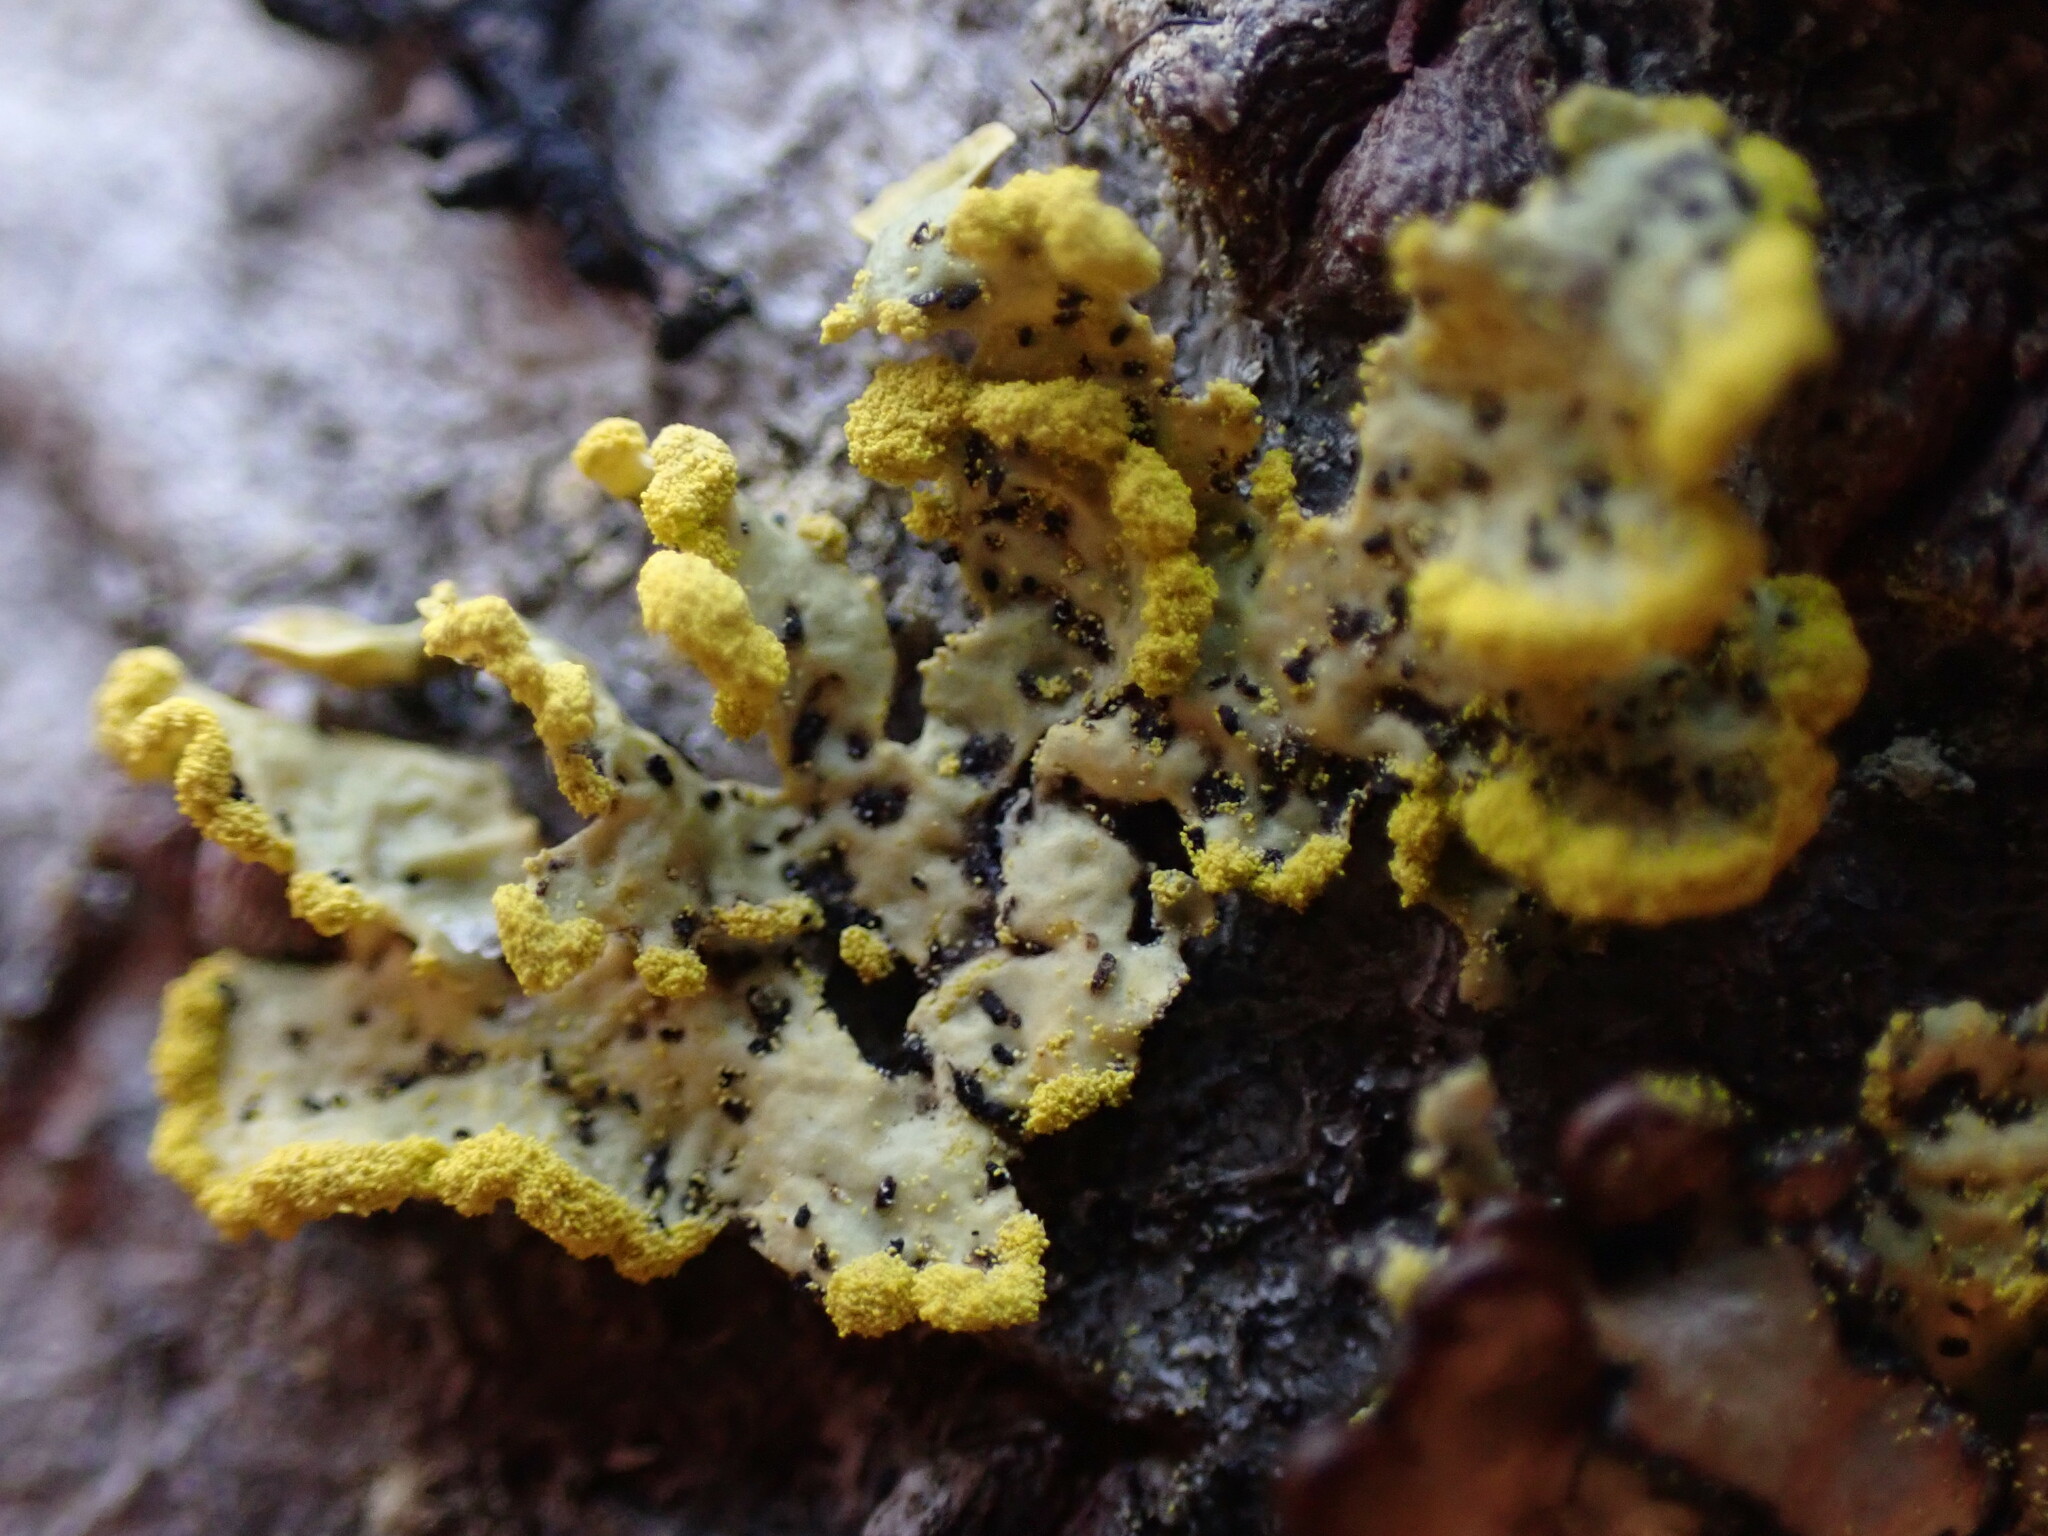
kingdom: Fungi
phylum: Ascomycota
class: Lecanoromycetes
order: Lecanorales
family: Parmeliaceae
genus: Vulpicida
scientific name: Vulpicida pinastri
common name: Powdered sunshine lichen
